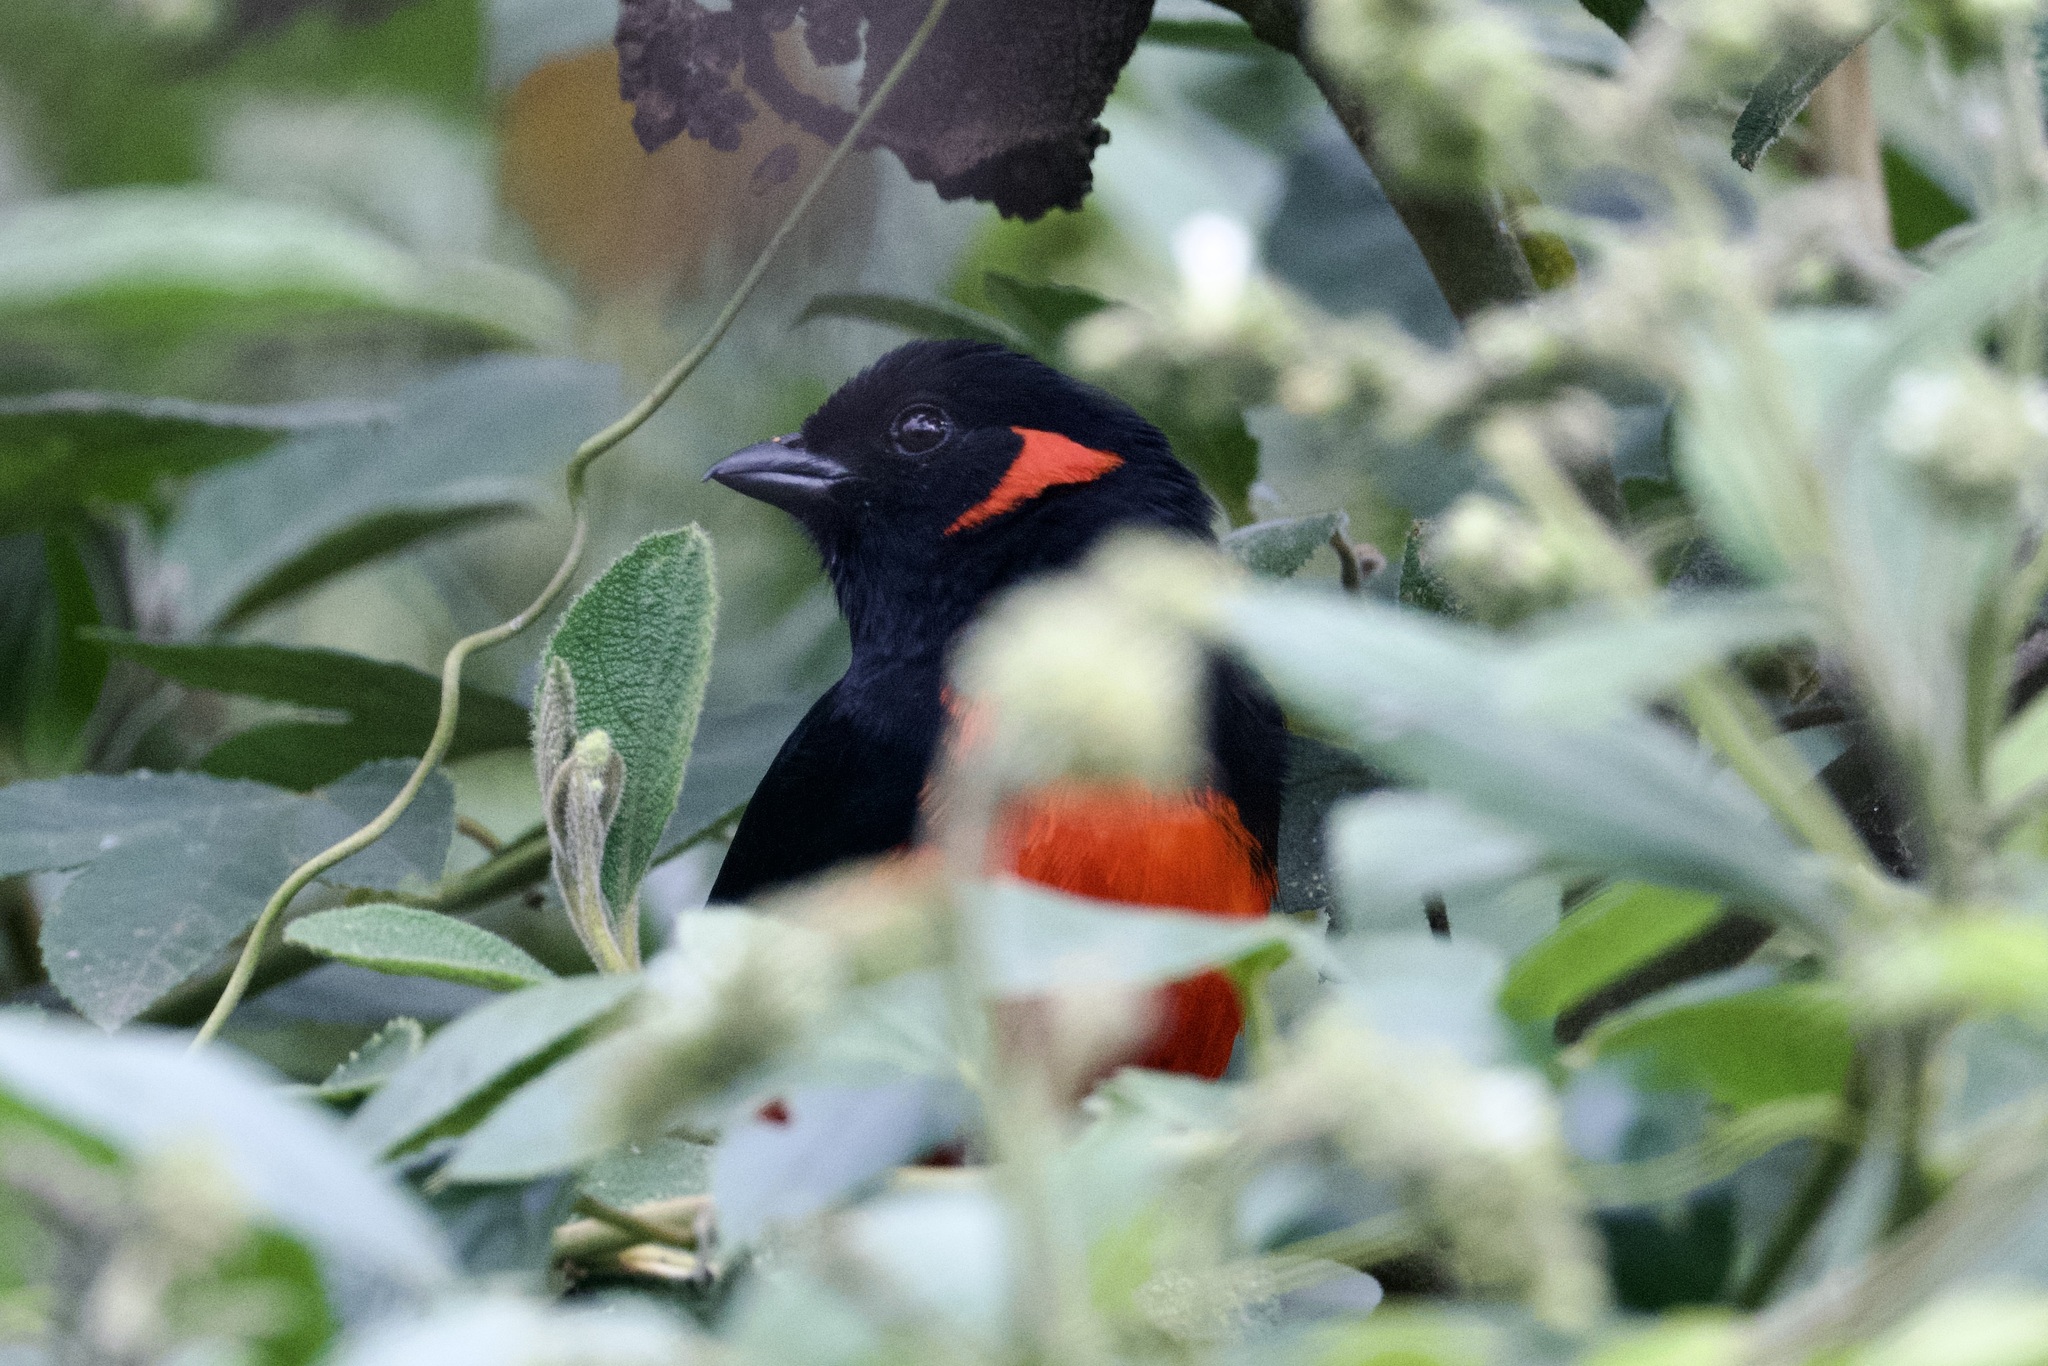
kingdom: Animalia
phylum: Chordata
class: Aves
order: Passeriformes
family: Thraupidae
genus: Anisognathus
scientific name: Anisognathus igniventris
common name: Scarlet-bellied mountain tanager
